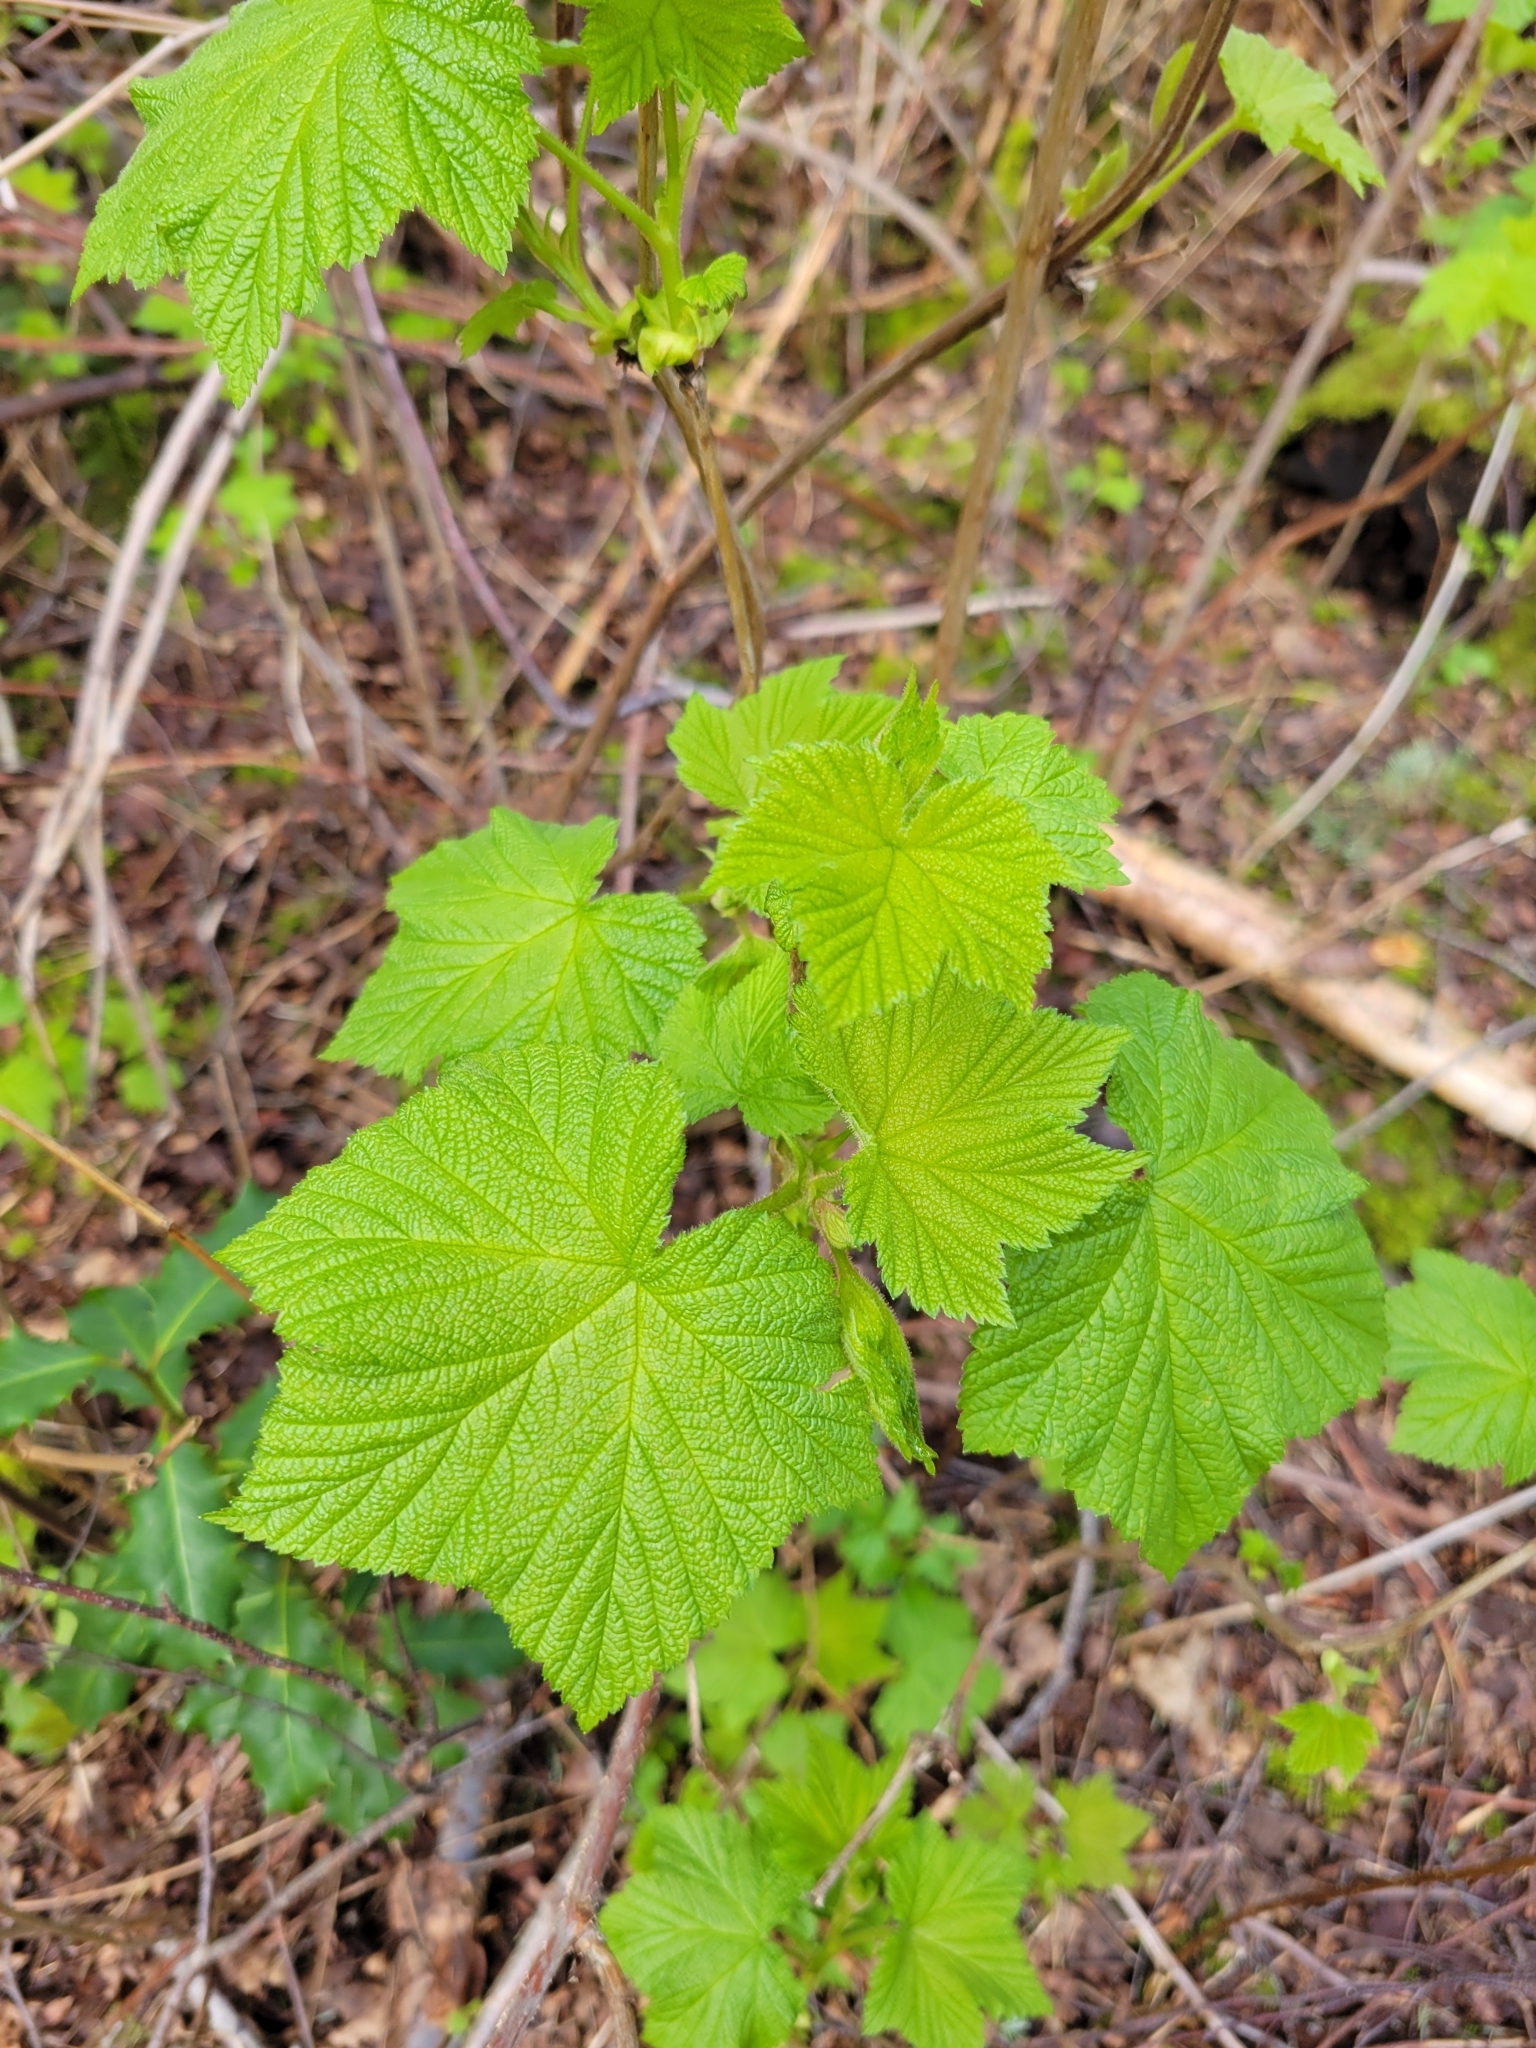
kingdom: Plantae
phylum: Tracheophyta
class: Magnoliopsida
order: Rosales
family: Rosaceae
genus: Rubus
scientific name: Rubus parviflorus
